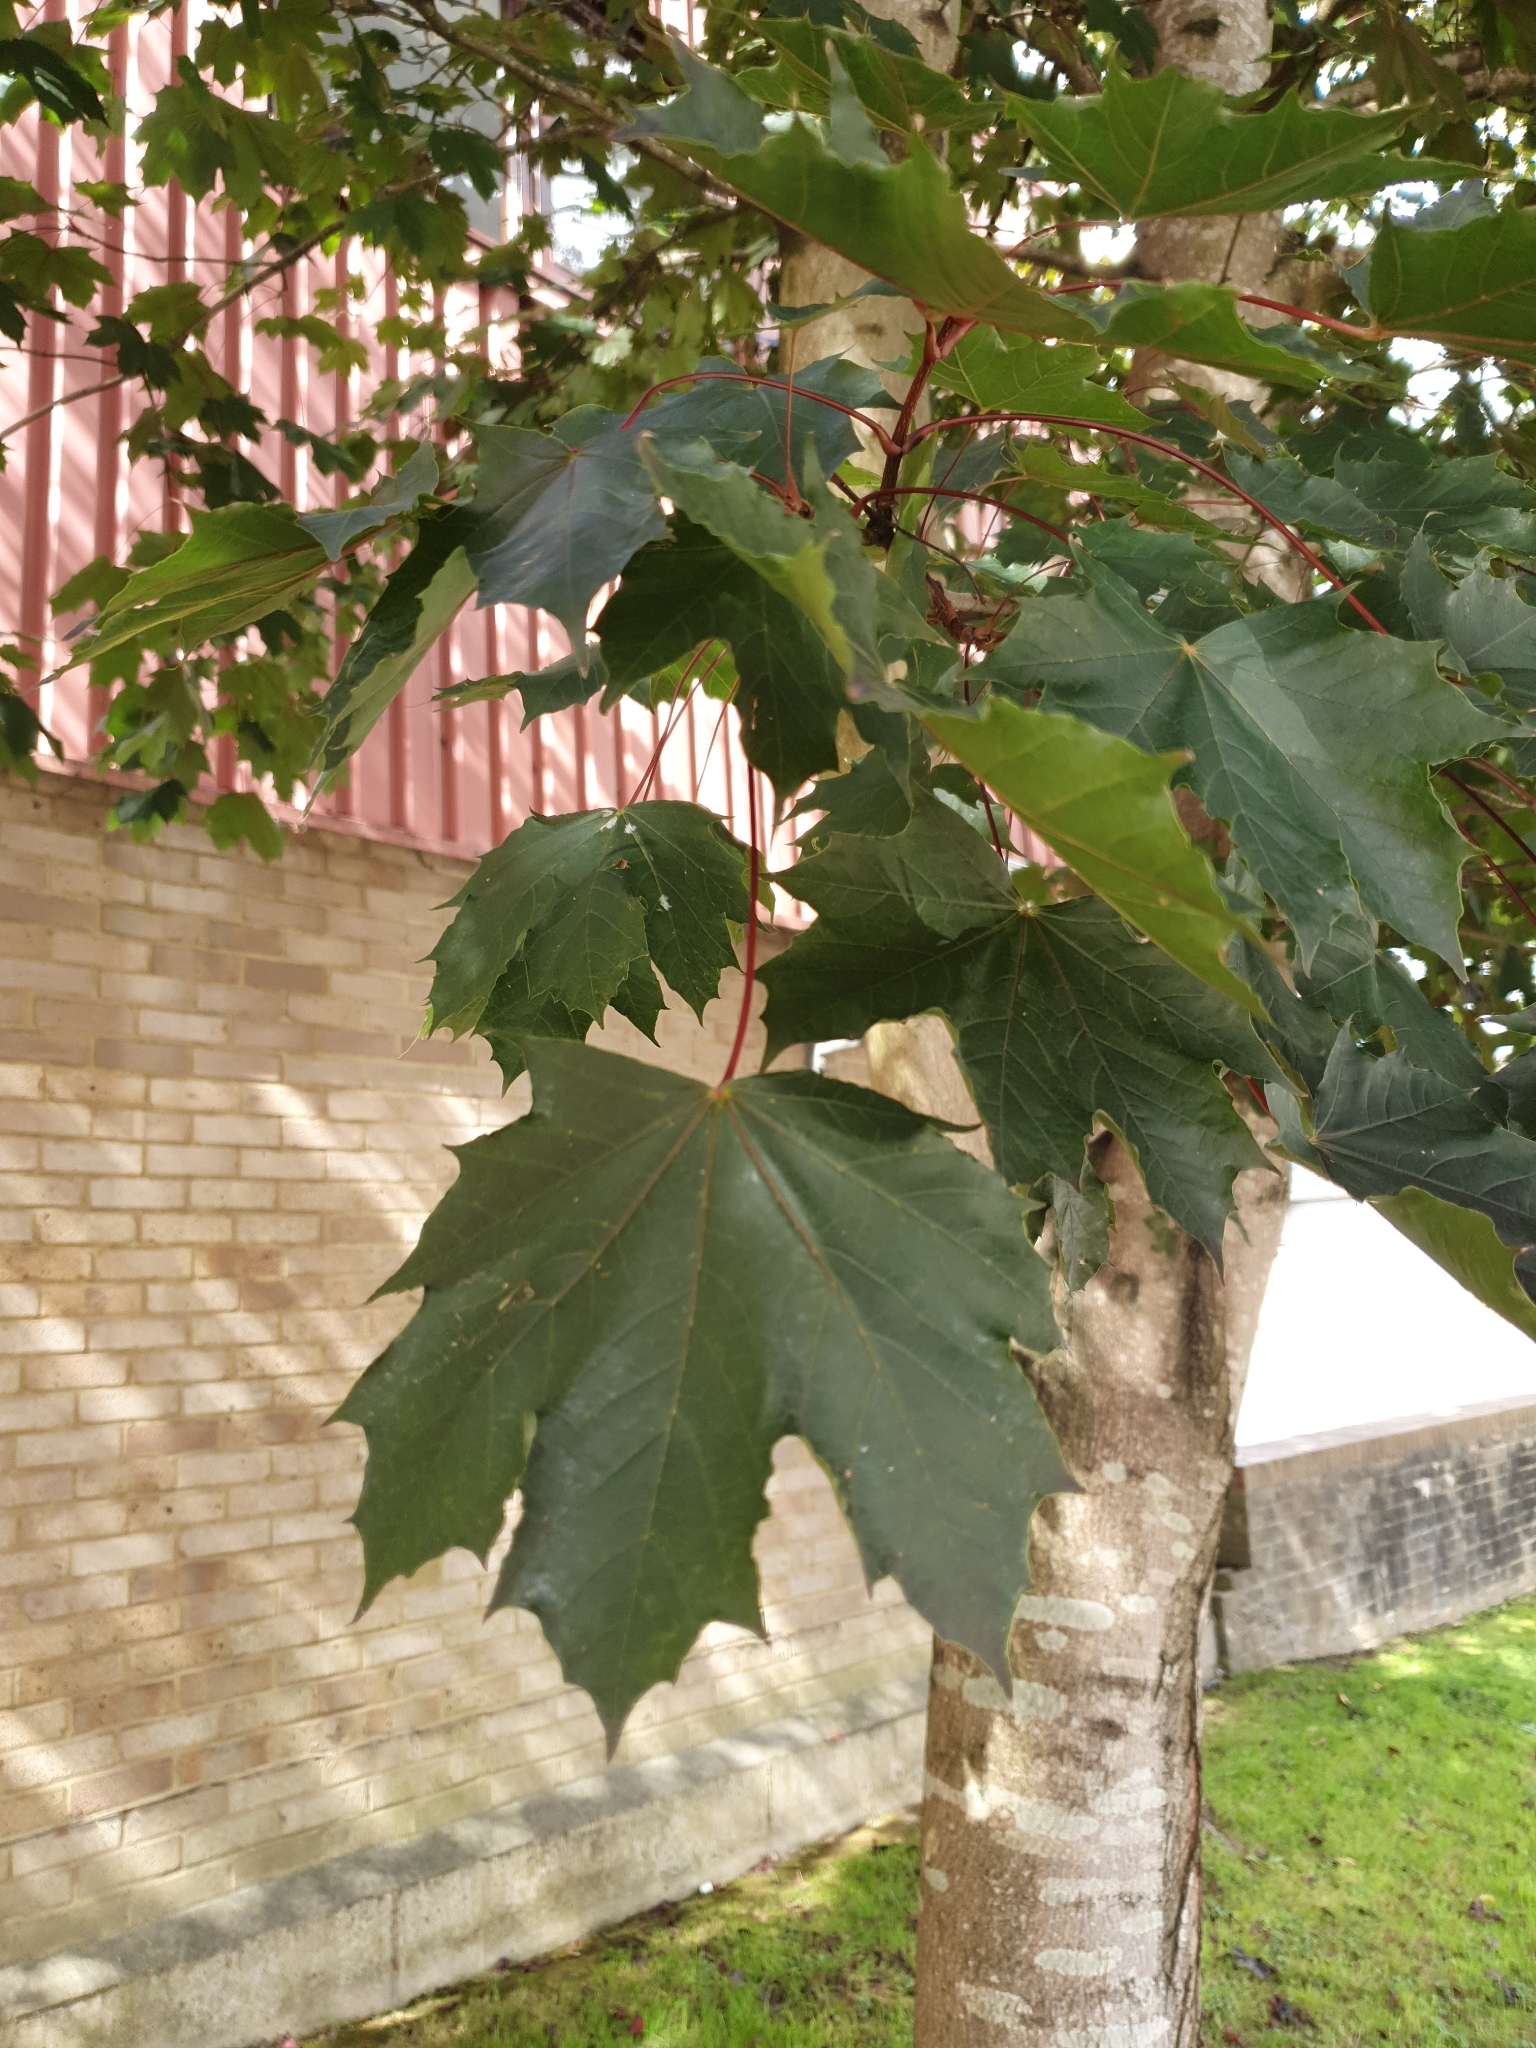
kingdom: Plantae
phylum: Tracheophyta
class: Magnoliopsida
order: Sapindales
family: Sapindaceae
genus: Acer
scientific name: Acer platanoides
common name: Norway maple
